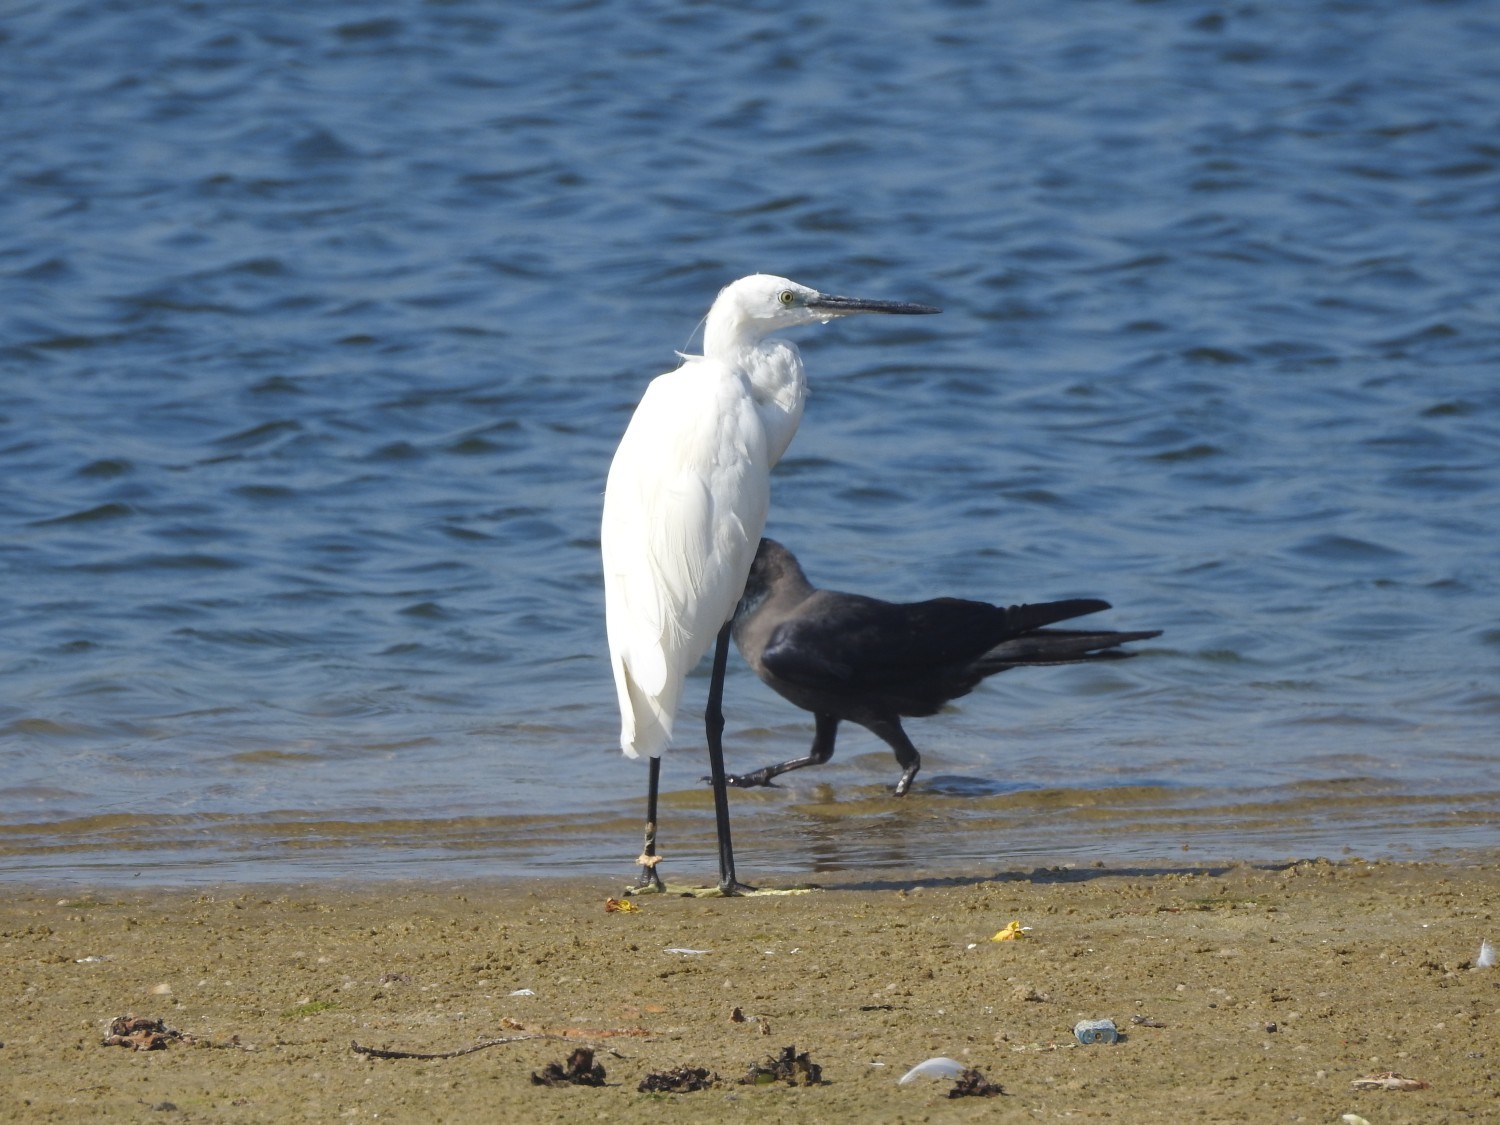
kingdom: Animalia
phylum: Chordata
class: Aves
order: Pelecaniformes
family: Ardeidae
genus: Egretta
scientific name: Egretta garzetta
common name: Little egret
